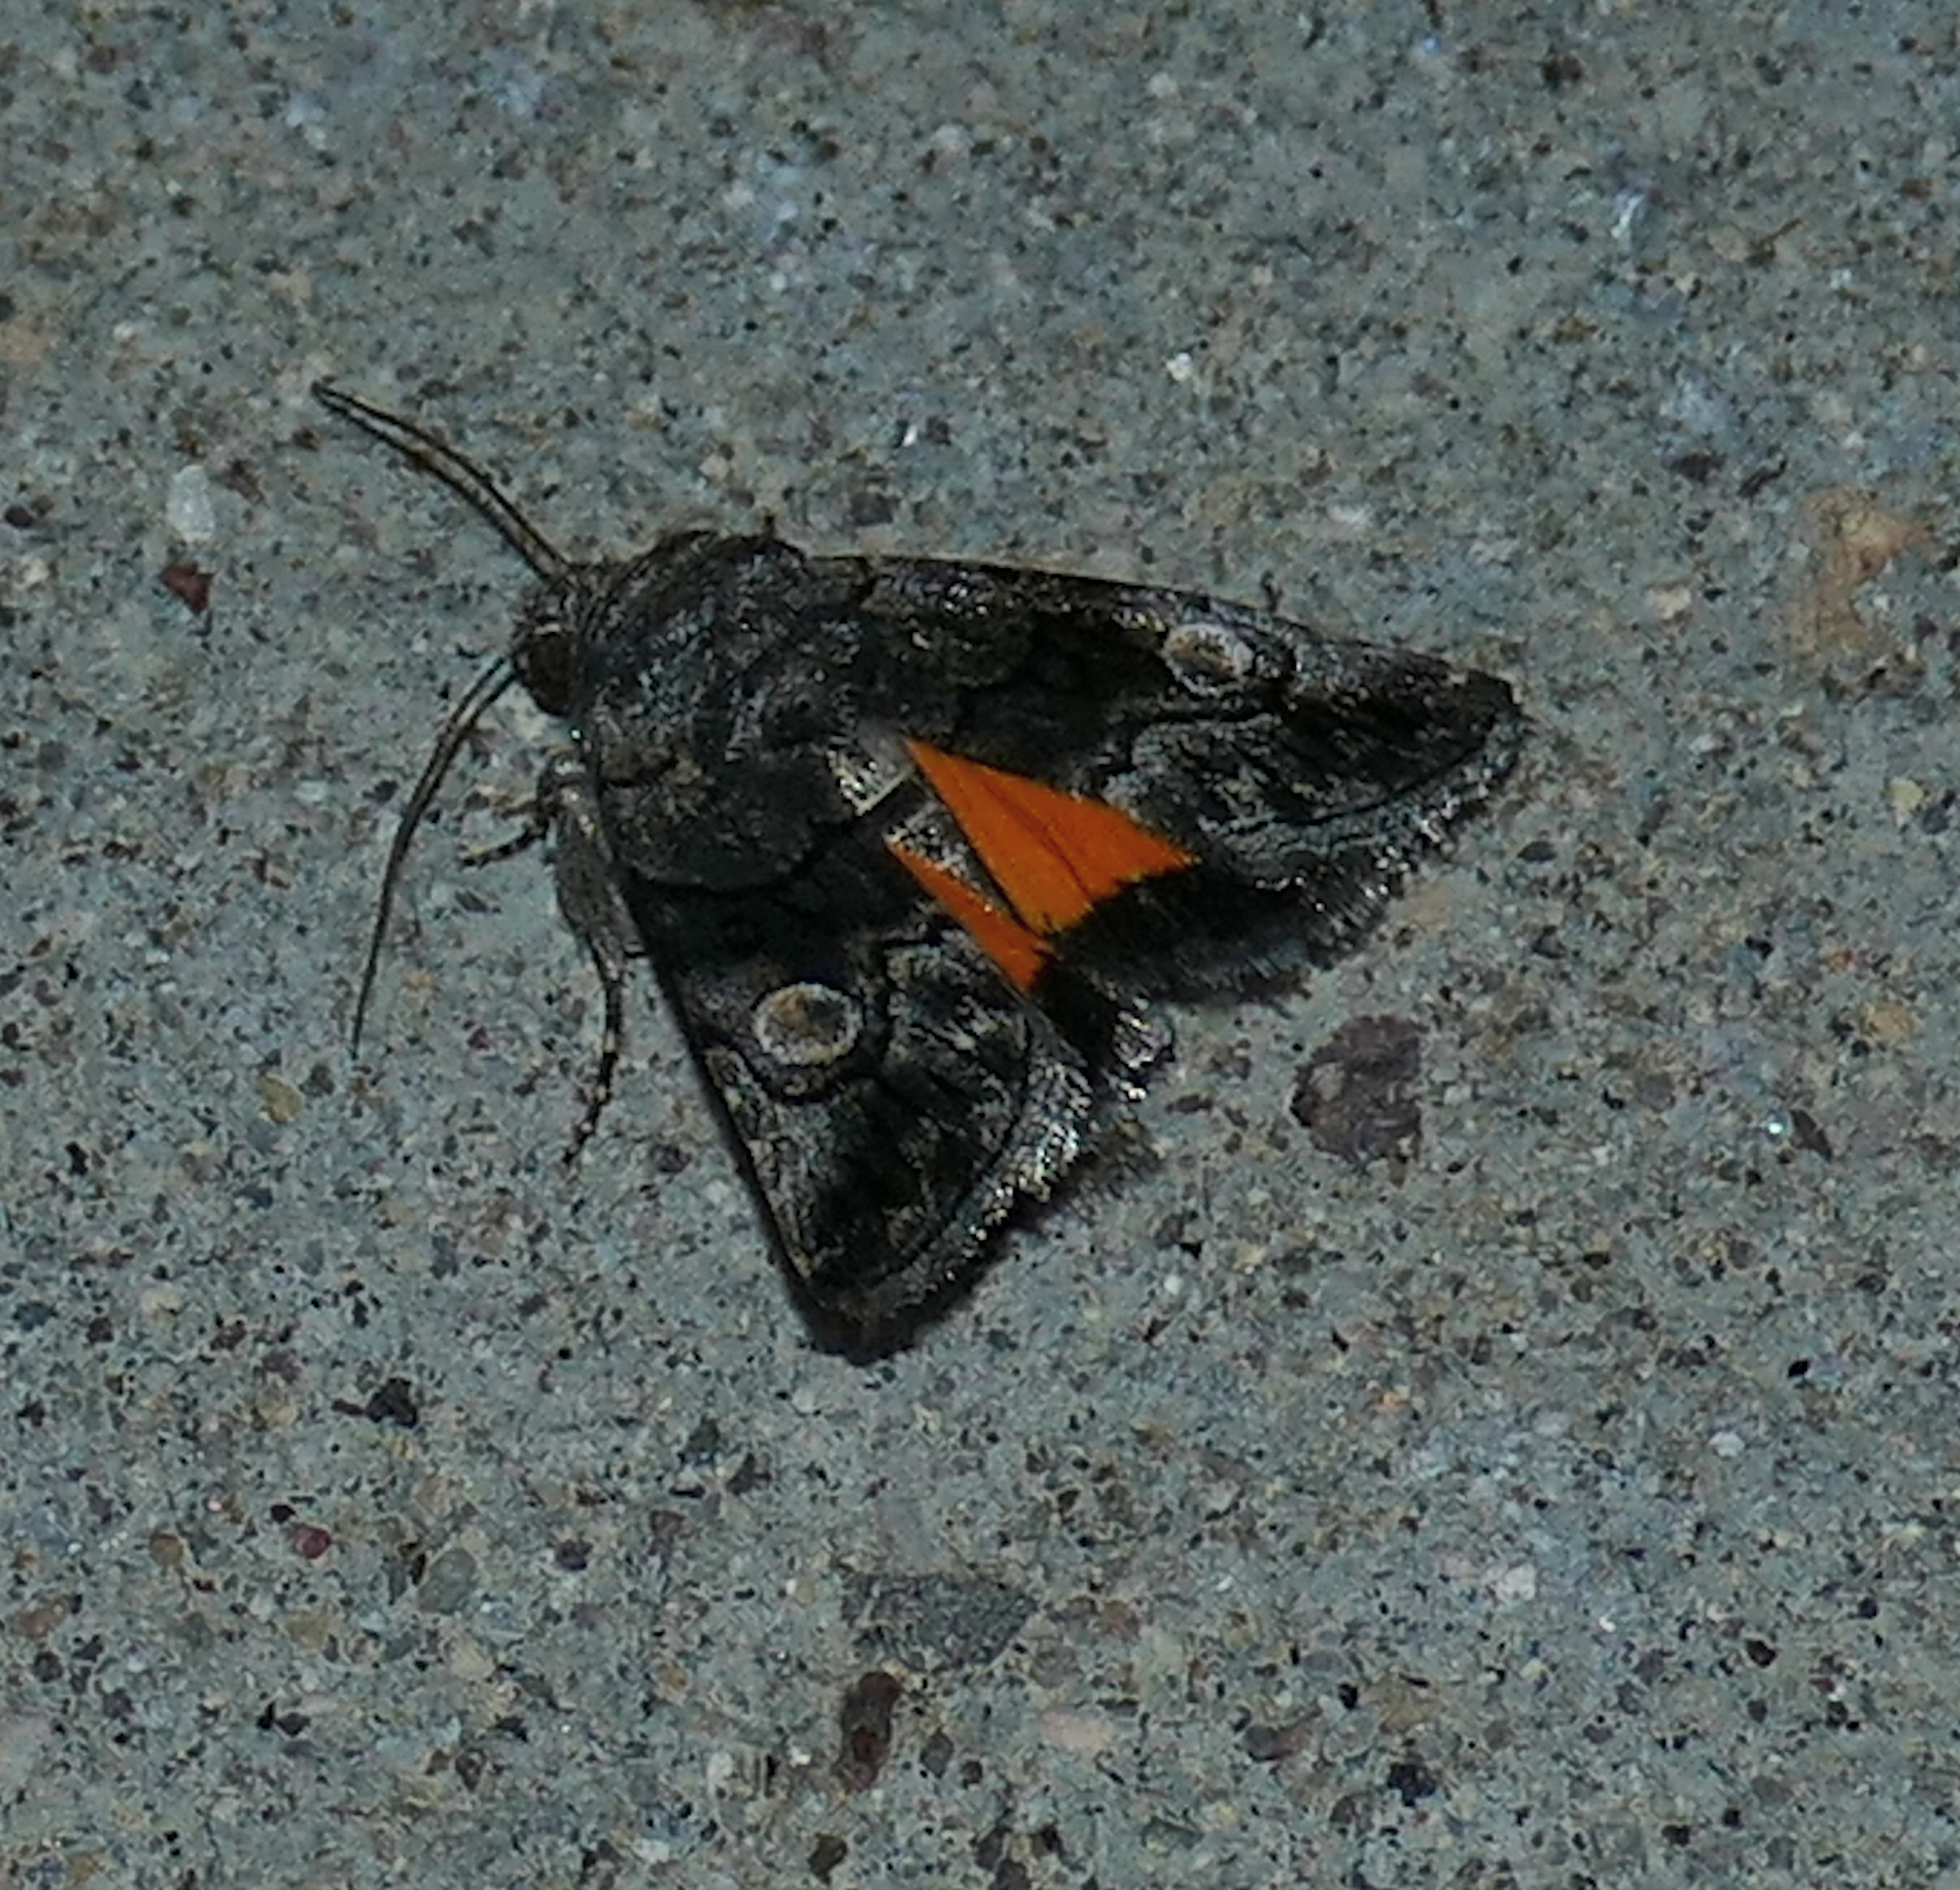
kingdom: Animalia
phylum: Arthropoda
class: Insecta
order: Lepidoptera
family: Noctuidae
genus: Copanarta
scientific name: Copanarta aurea
